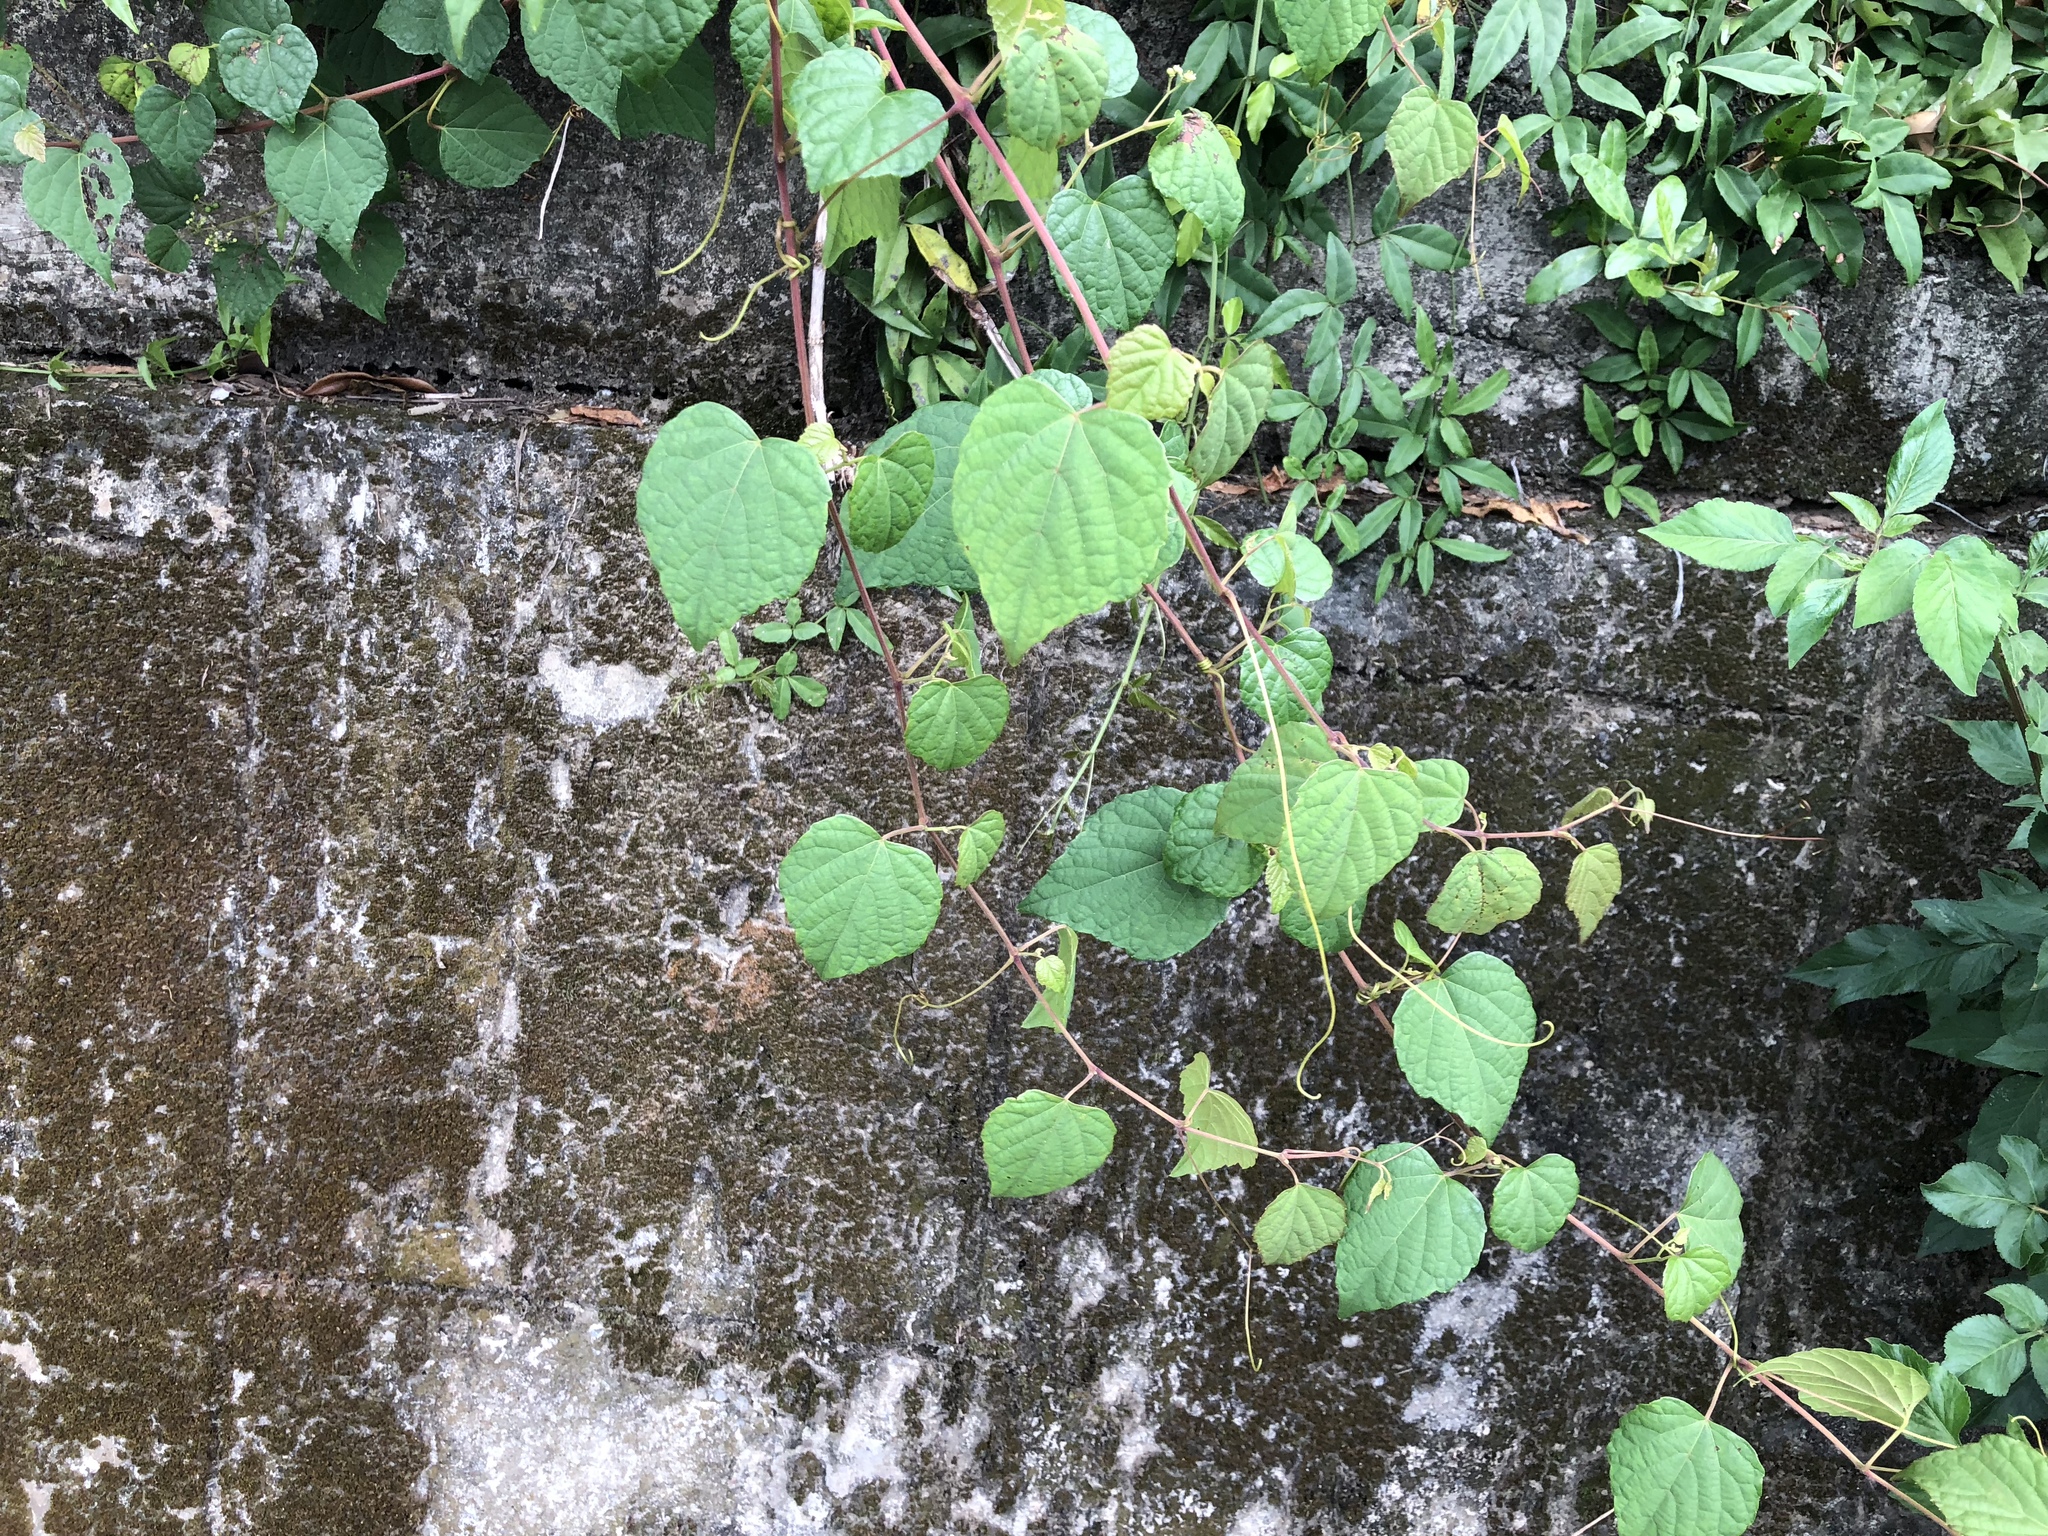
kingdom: Plantae
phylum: Tracheophyta
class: Magnoliopsida
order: Vitales
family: Vitaceae
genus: Ampelopsis
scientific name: Ampelopsis glandulosa
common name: Amur peppervine
